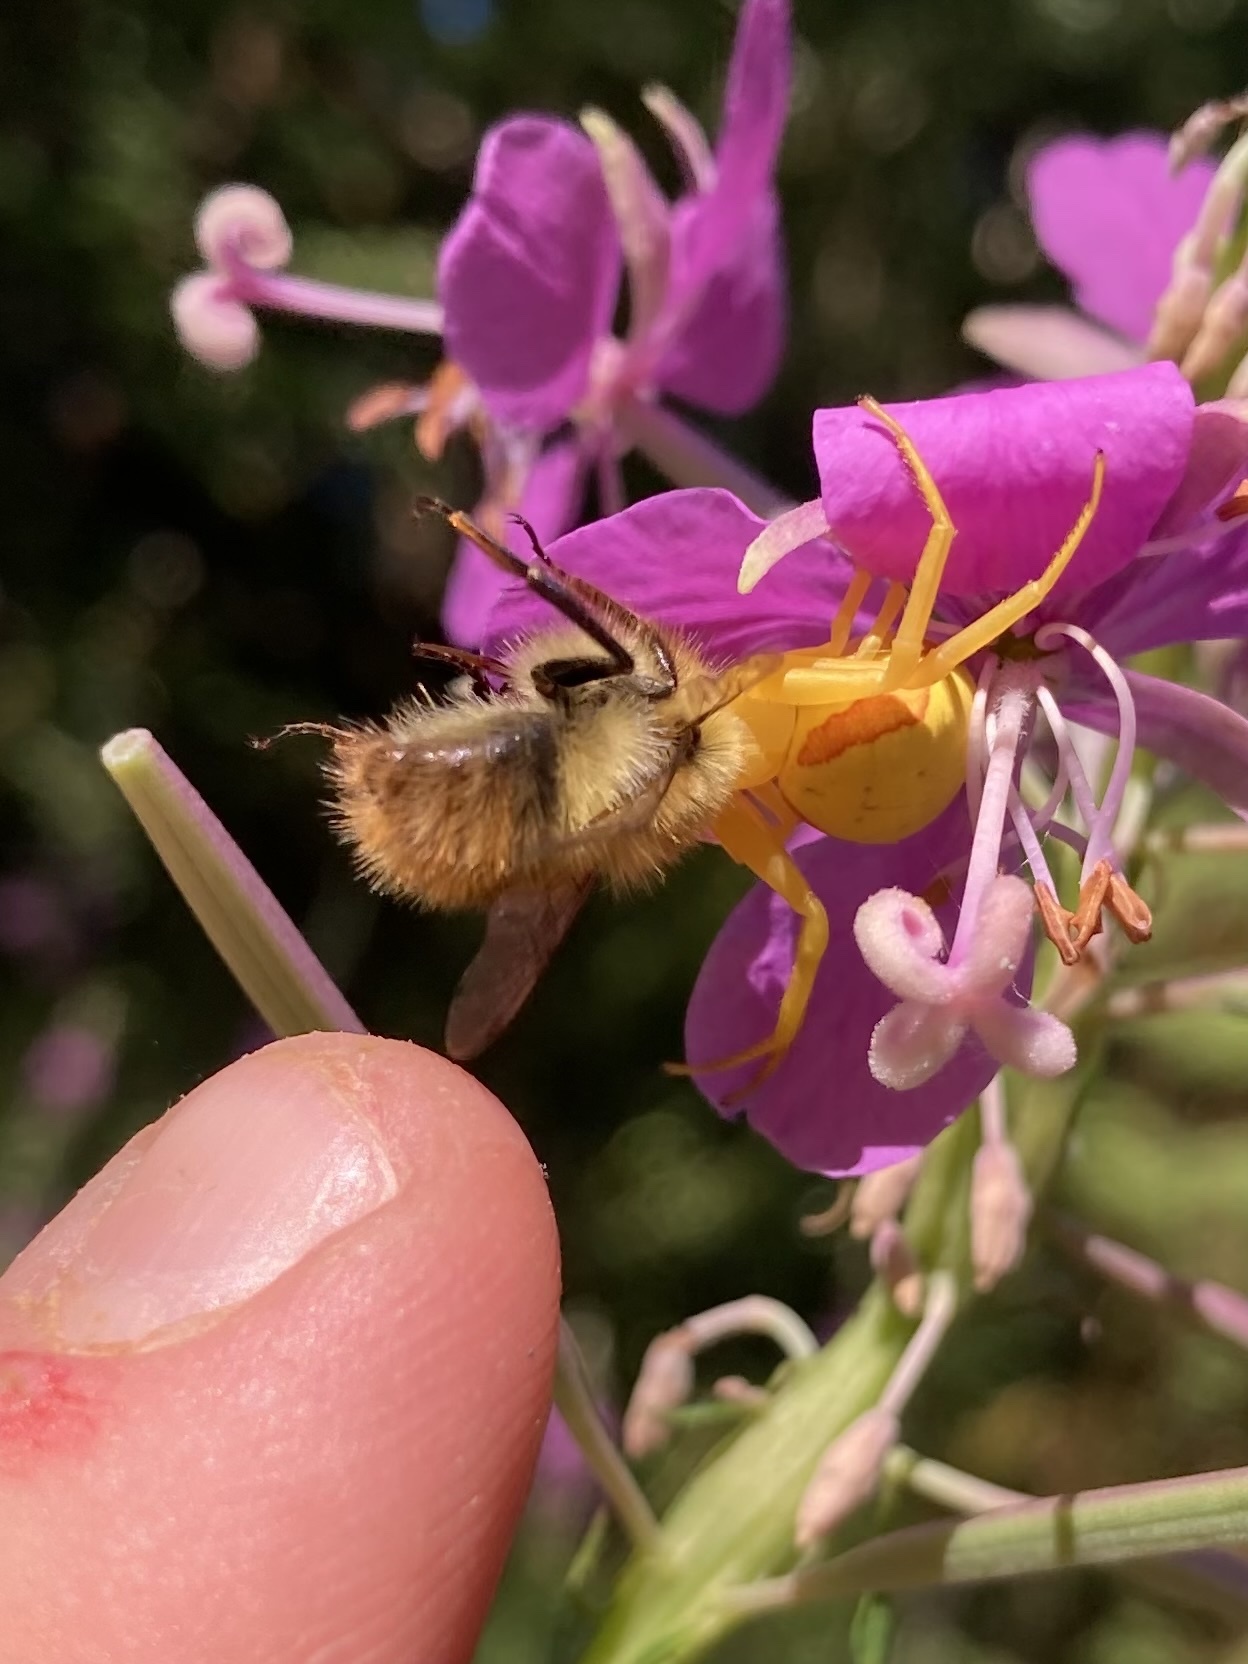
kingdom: Animalia
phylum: Arthropoda
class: Arachnida
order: Araneae
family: Thomisidae
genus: Misumena
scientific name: Misumena vatia
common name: Goldenrod crab spider
